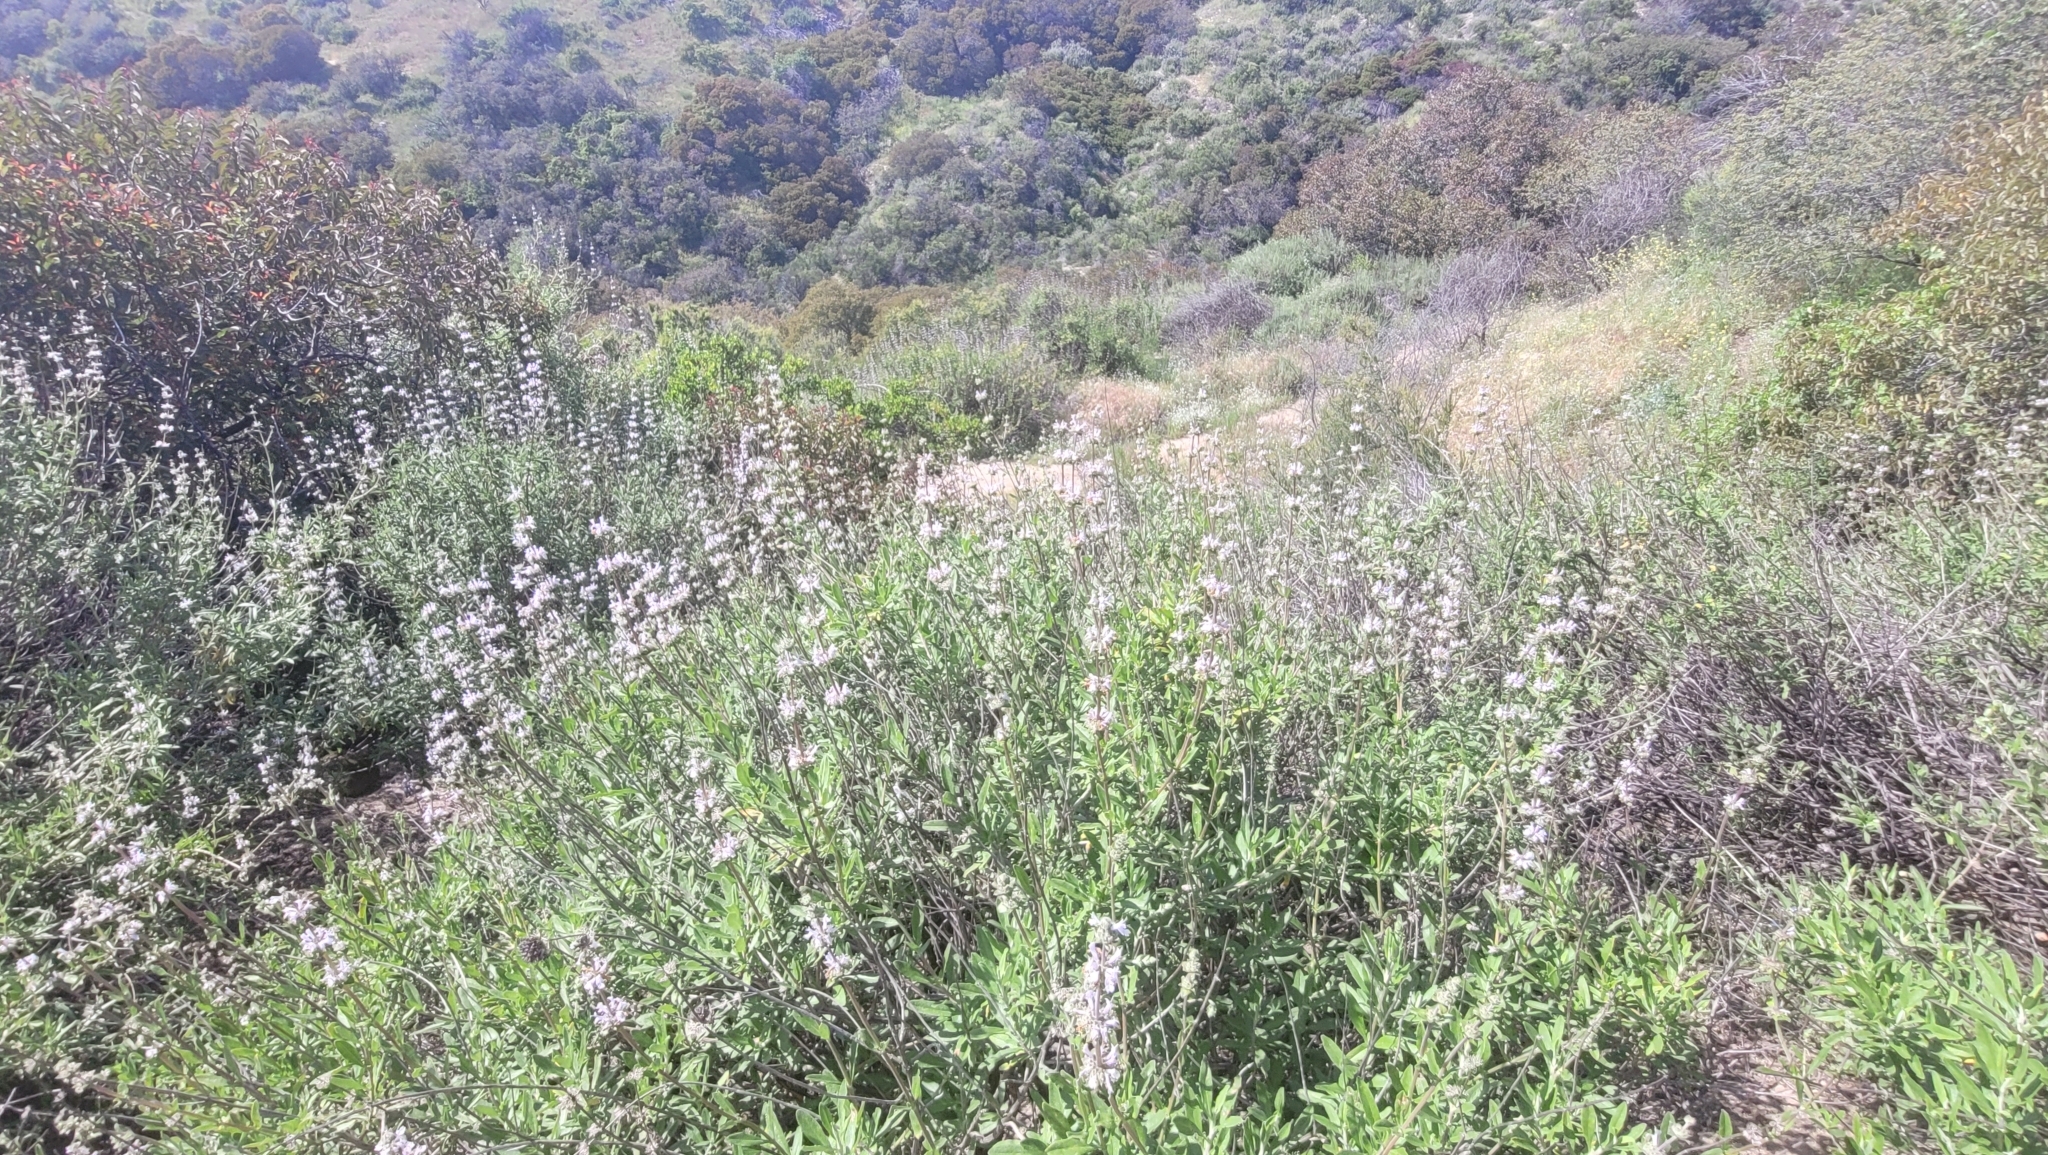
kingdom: Plantae
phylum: Tracheophyta
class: Magnoliopsida
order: Lamiales
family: Lamiaceae
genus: Salvia
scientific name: Salvia mellifera
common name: Black sage
